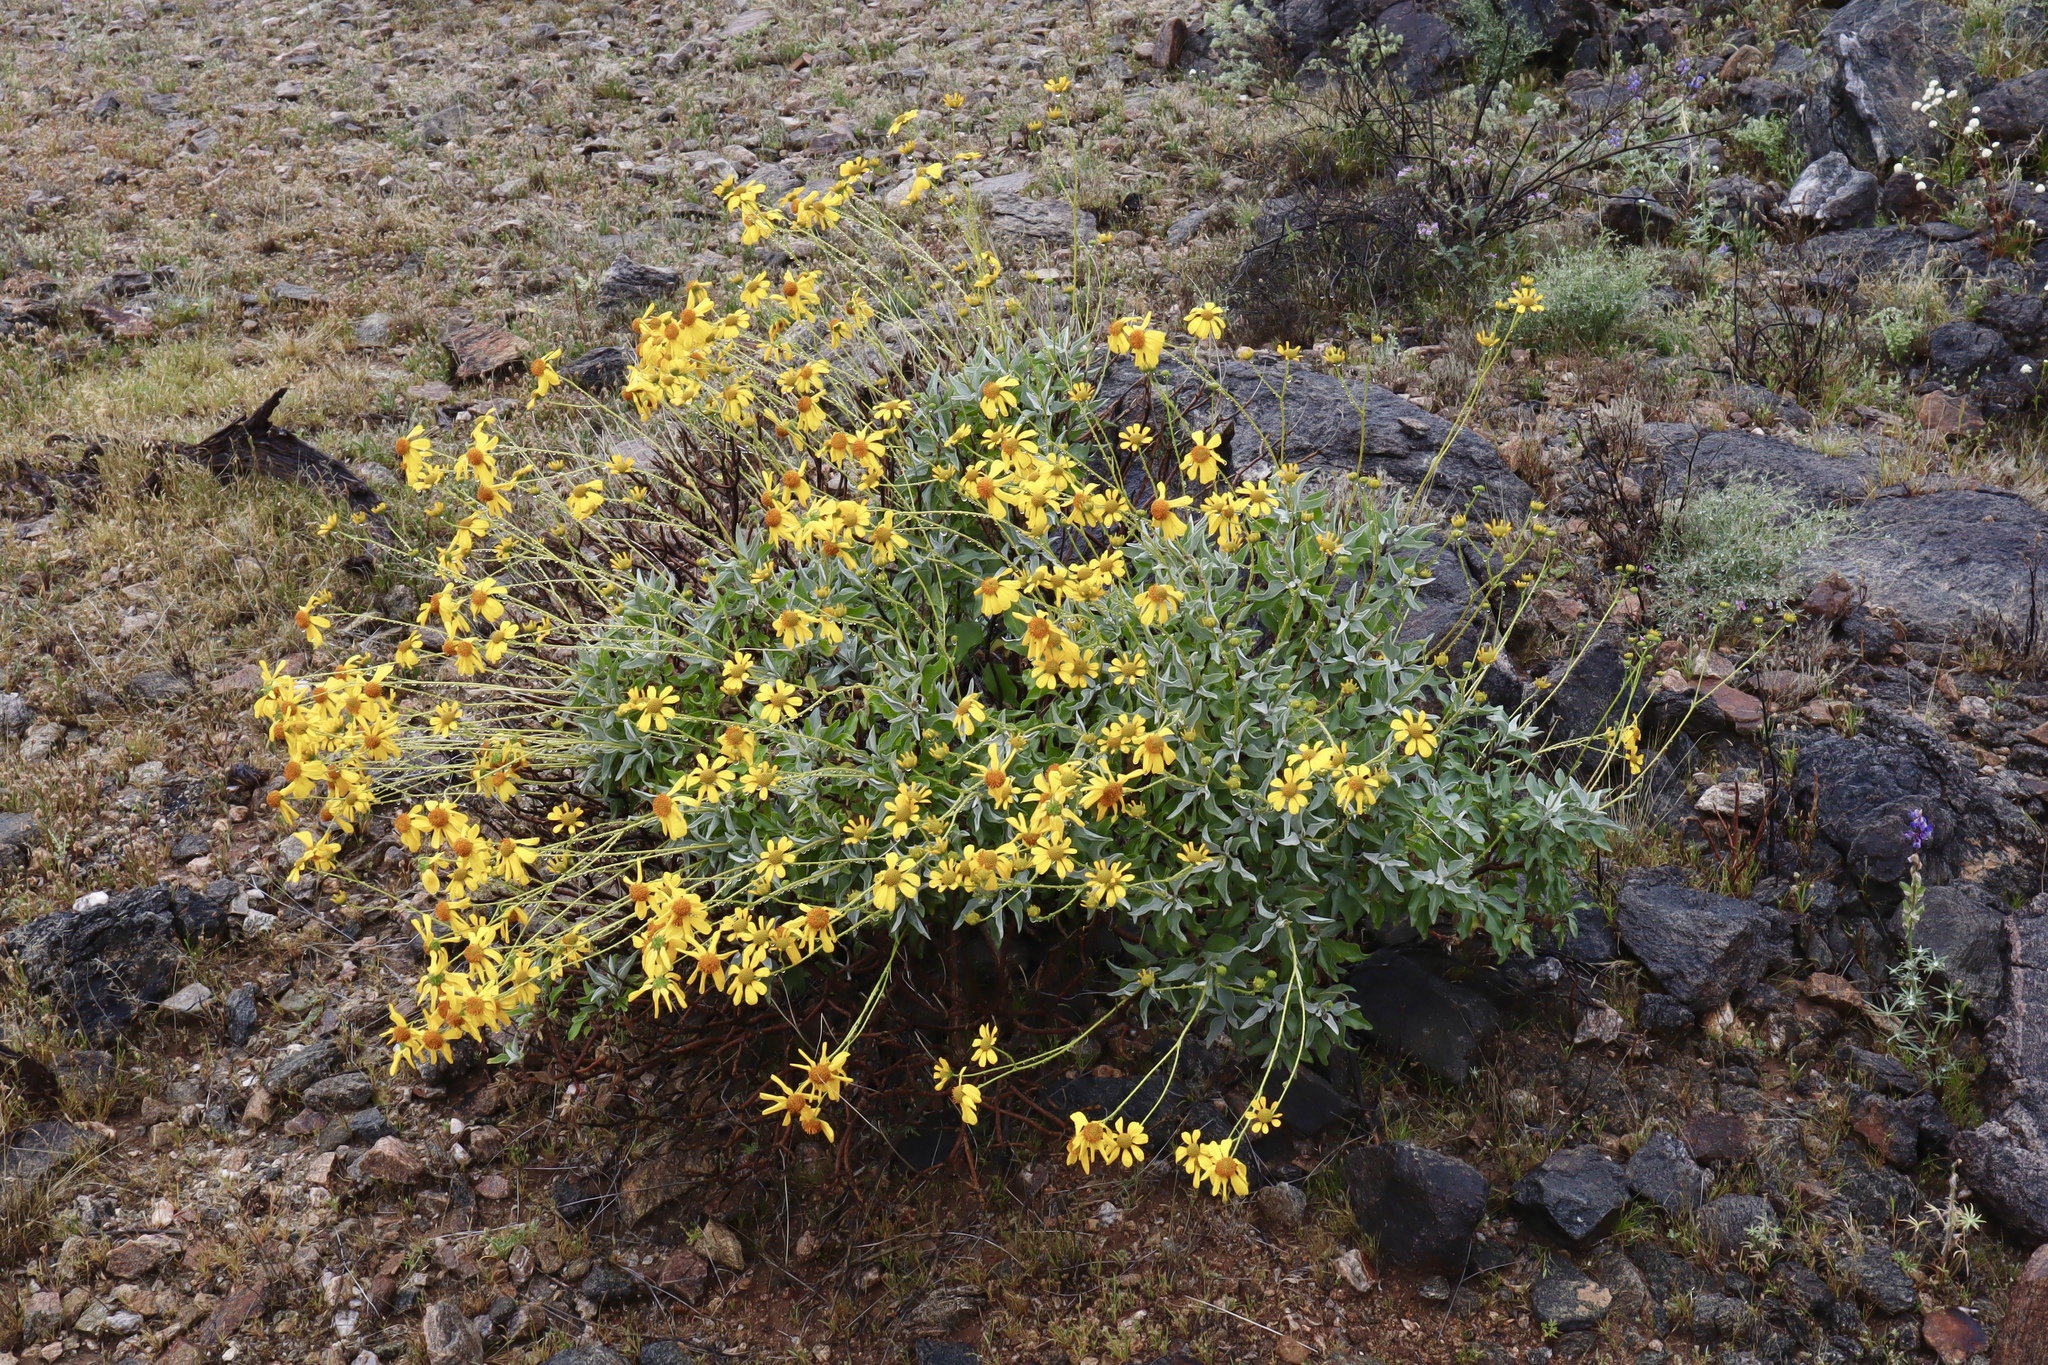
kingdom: Plantae
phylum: Tracheophyta
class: Magnoliopsida
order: Asterales
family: Asteraceae
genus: Encelia
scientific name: Encelia farinosa
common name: Brittlebush
